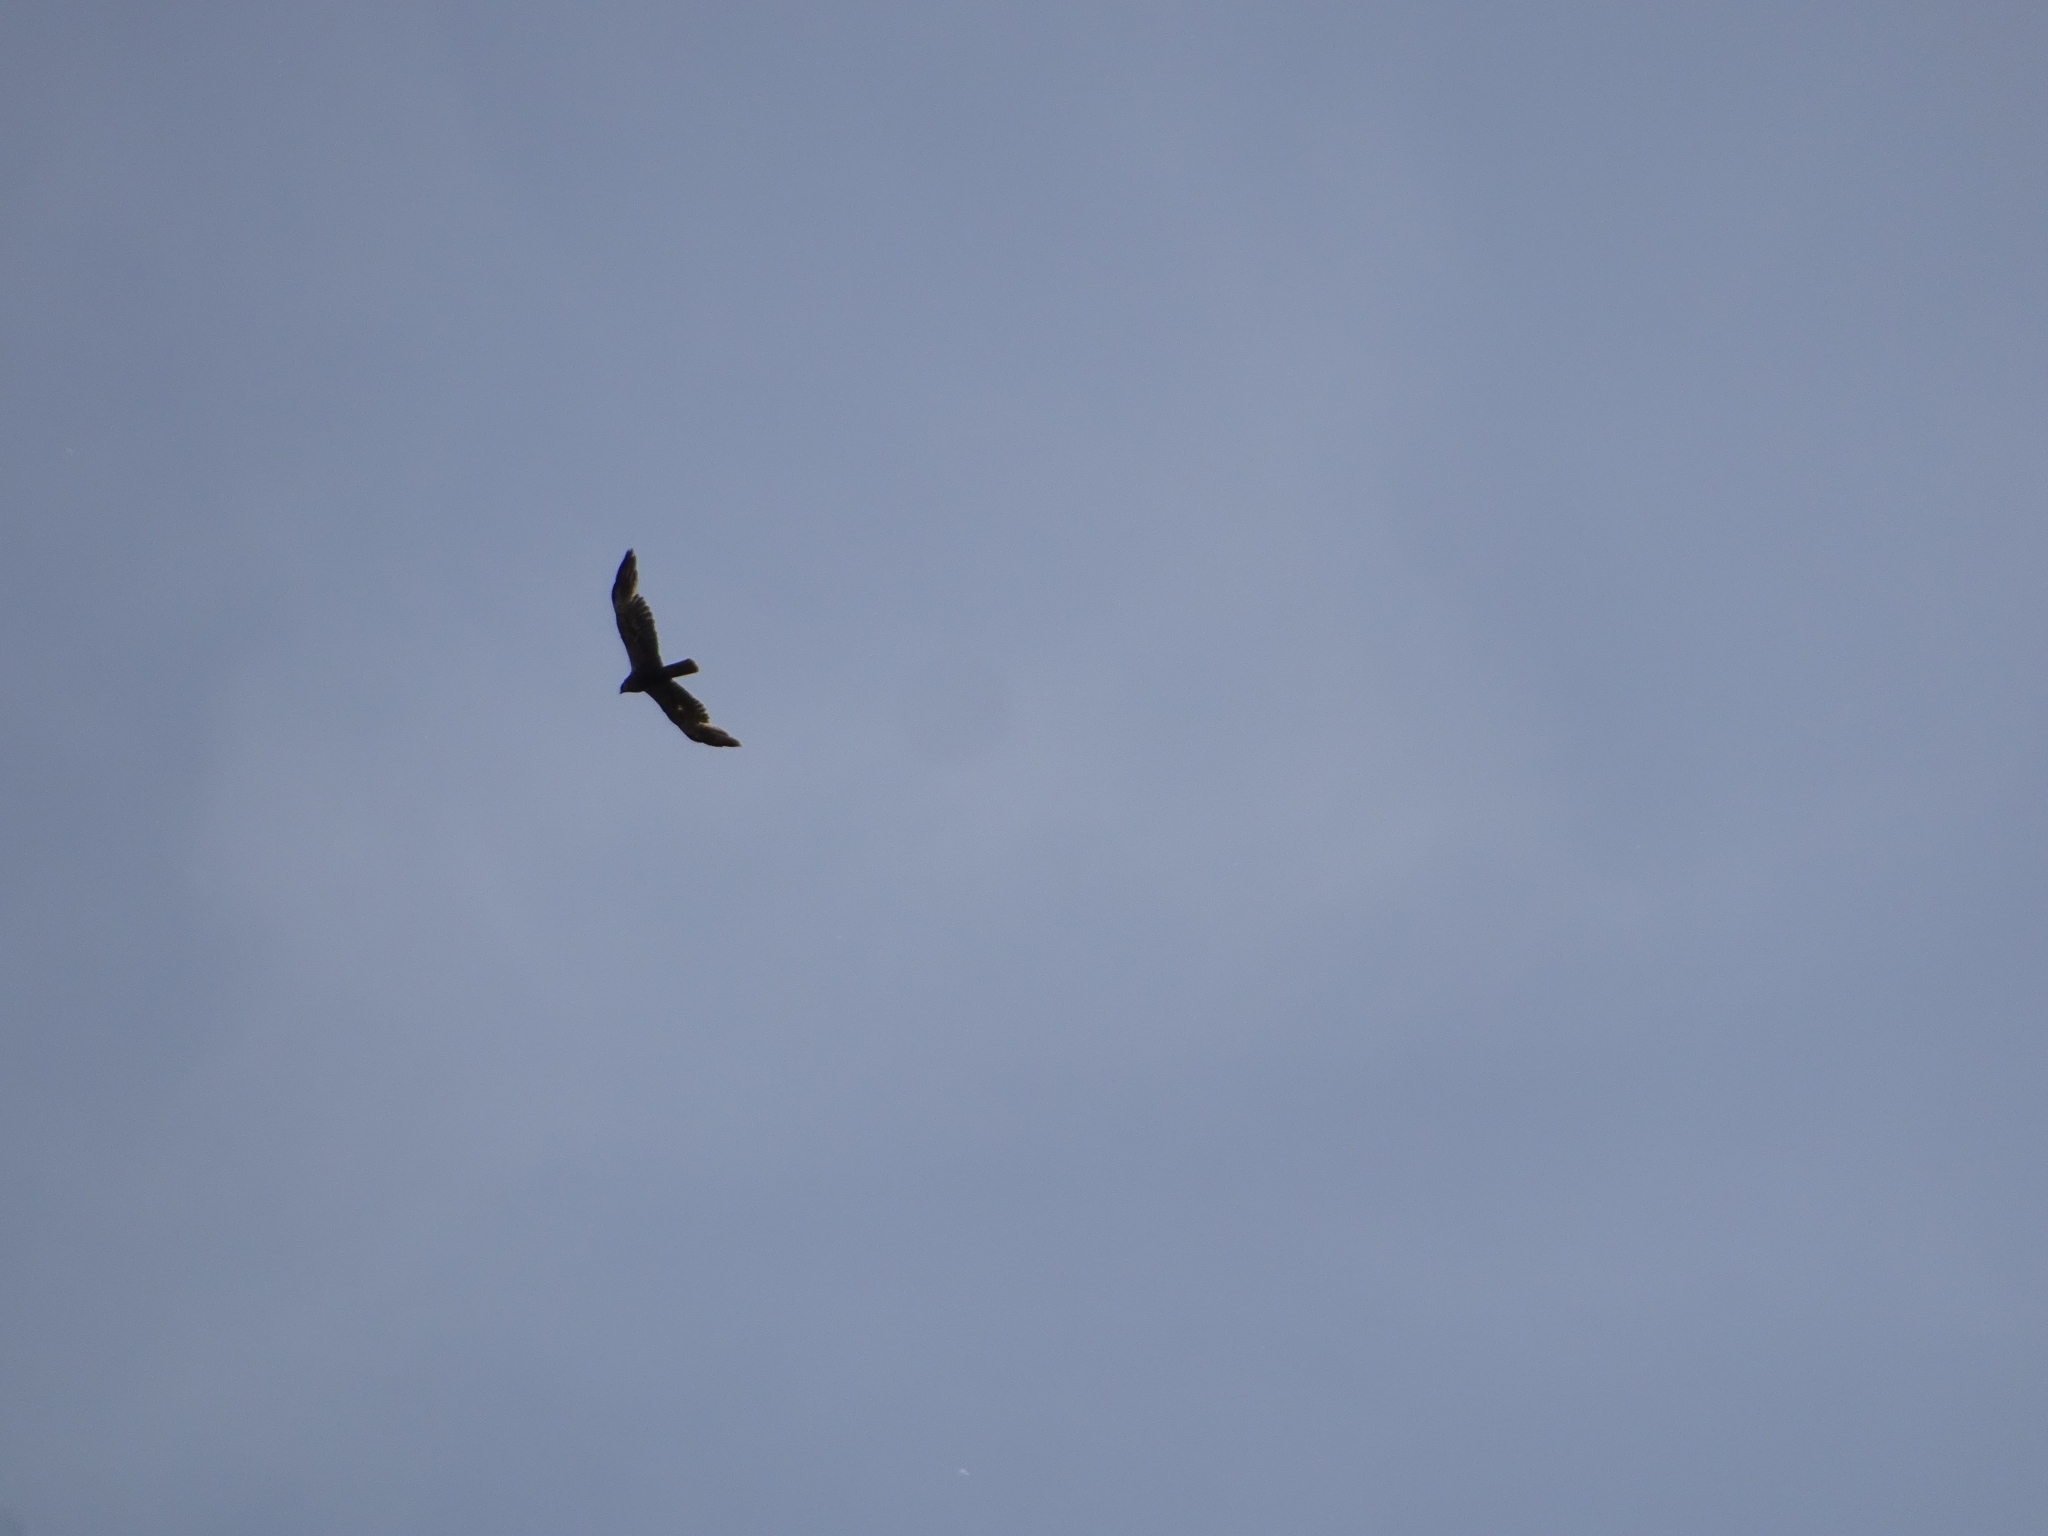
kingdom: Animalia
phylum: Chordata
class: Aves
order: Accipitriformes
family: Accipitridae
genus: Circus
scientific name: Circus aeruginosus
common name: Western marsh harrier
